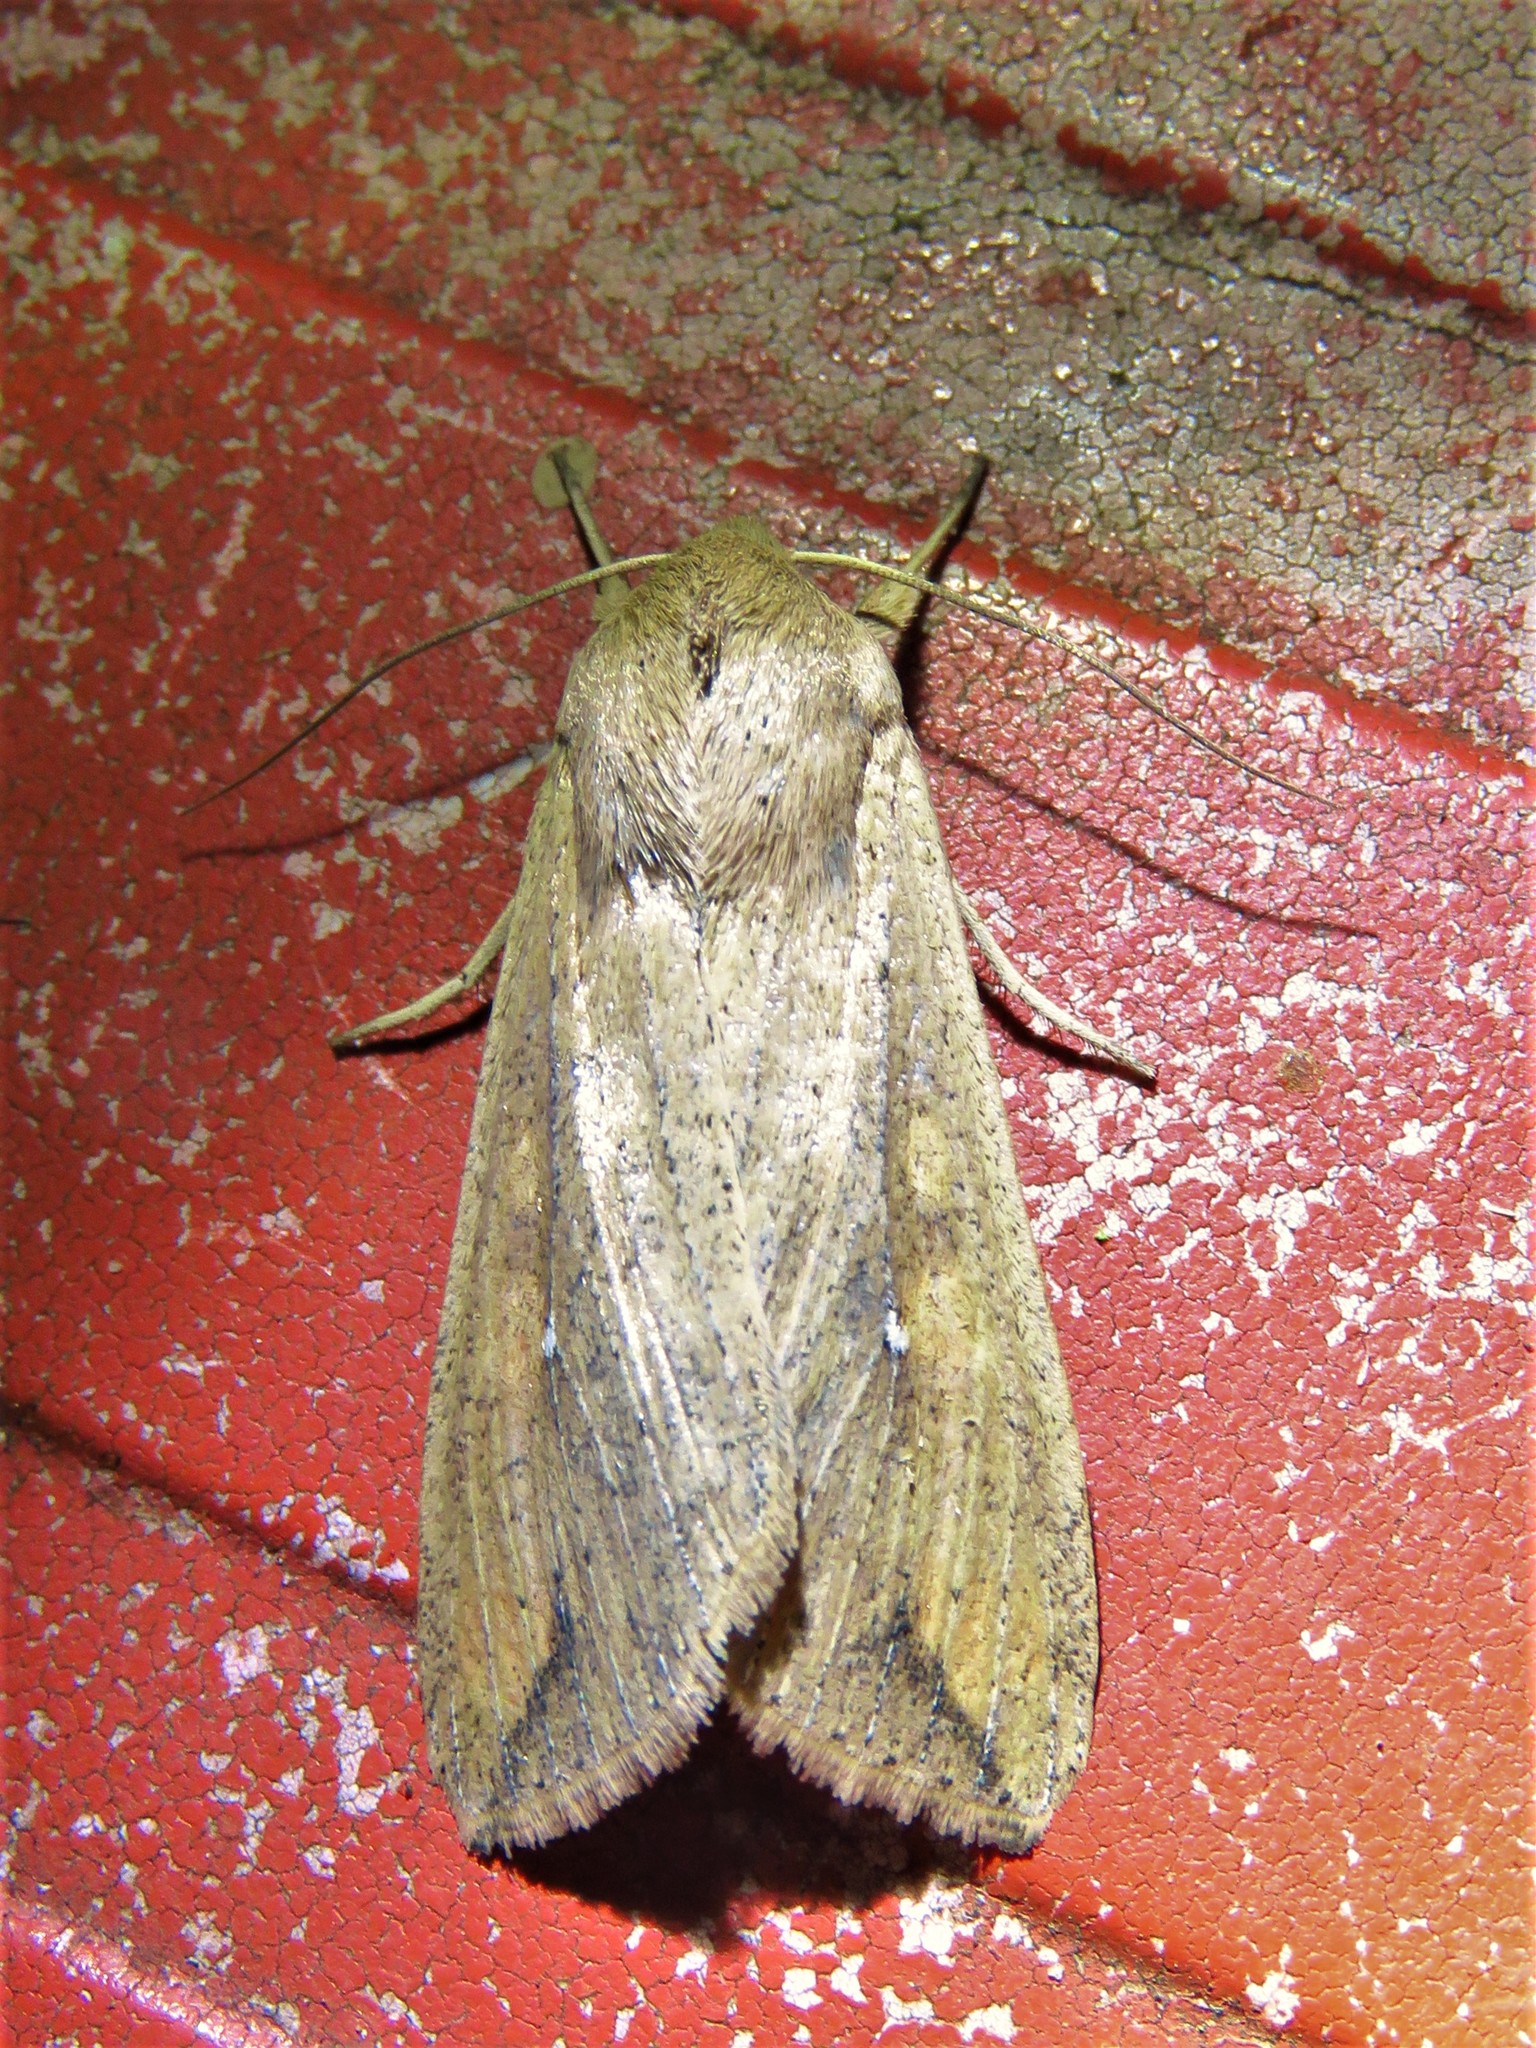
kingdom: Animalia
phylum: Arthropoda
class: Insecta
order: Lepidoptera
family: Noctuidae
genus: Mythimna
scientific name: Mythimna unipuncta
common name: White-speck
